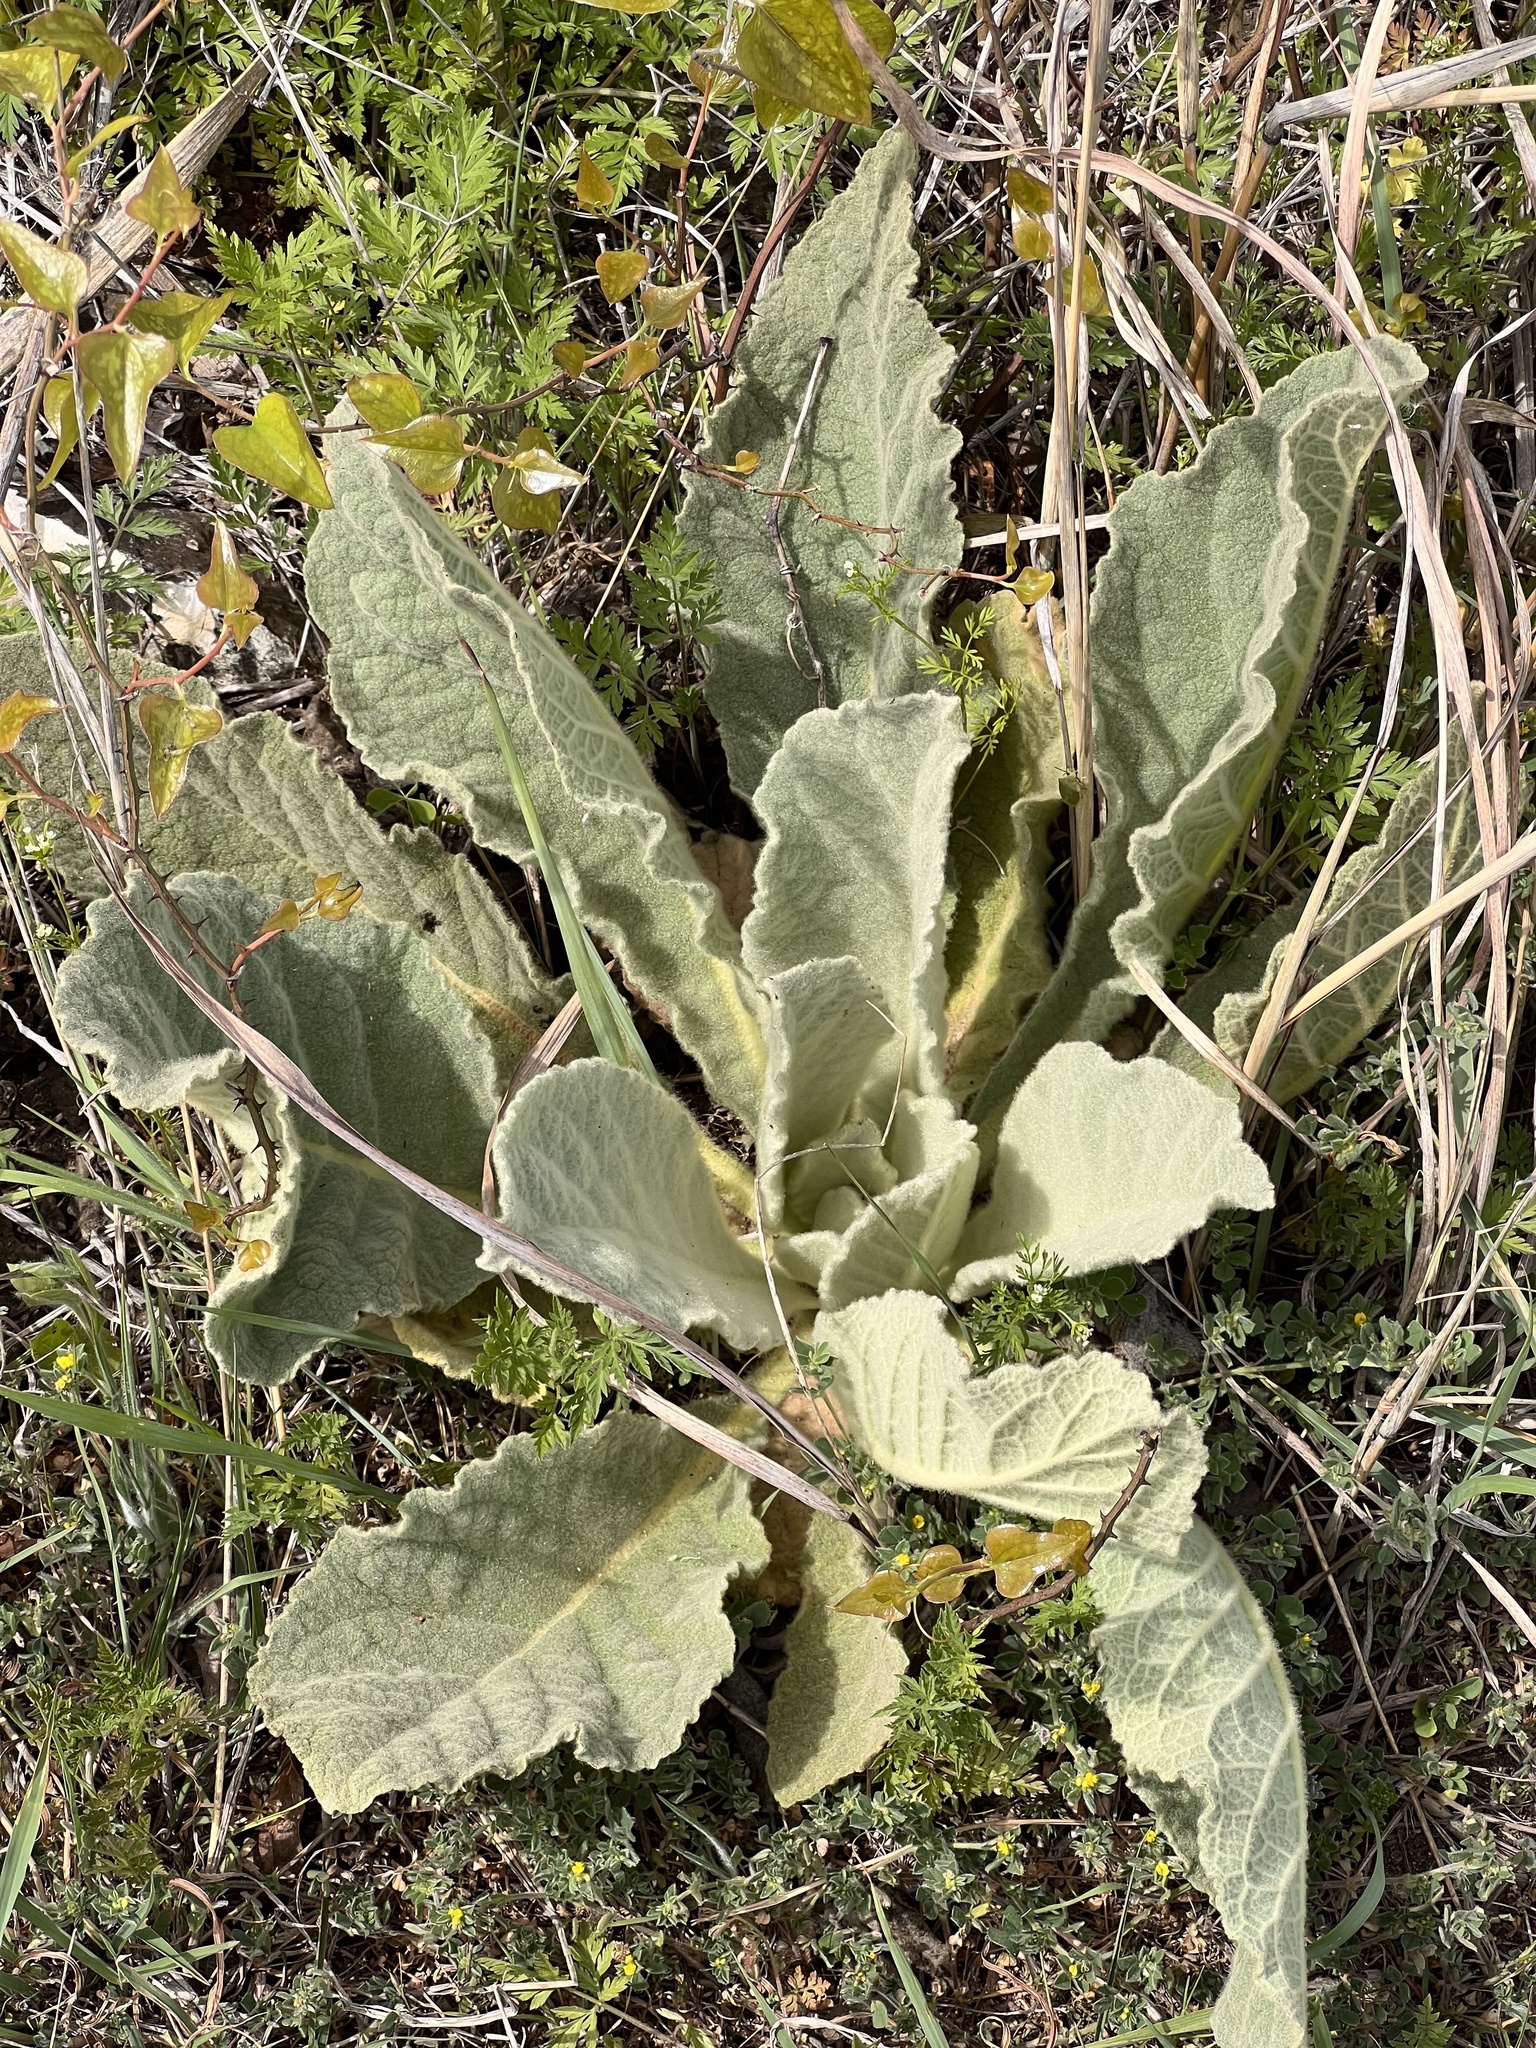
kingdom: Plantae
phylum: Tracheophyta
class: Magnoliopsida
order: Lamiales
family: Scrophulariaceae
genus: Verbascum
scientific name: Verbascum thapsus
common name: Common mullein
